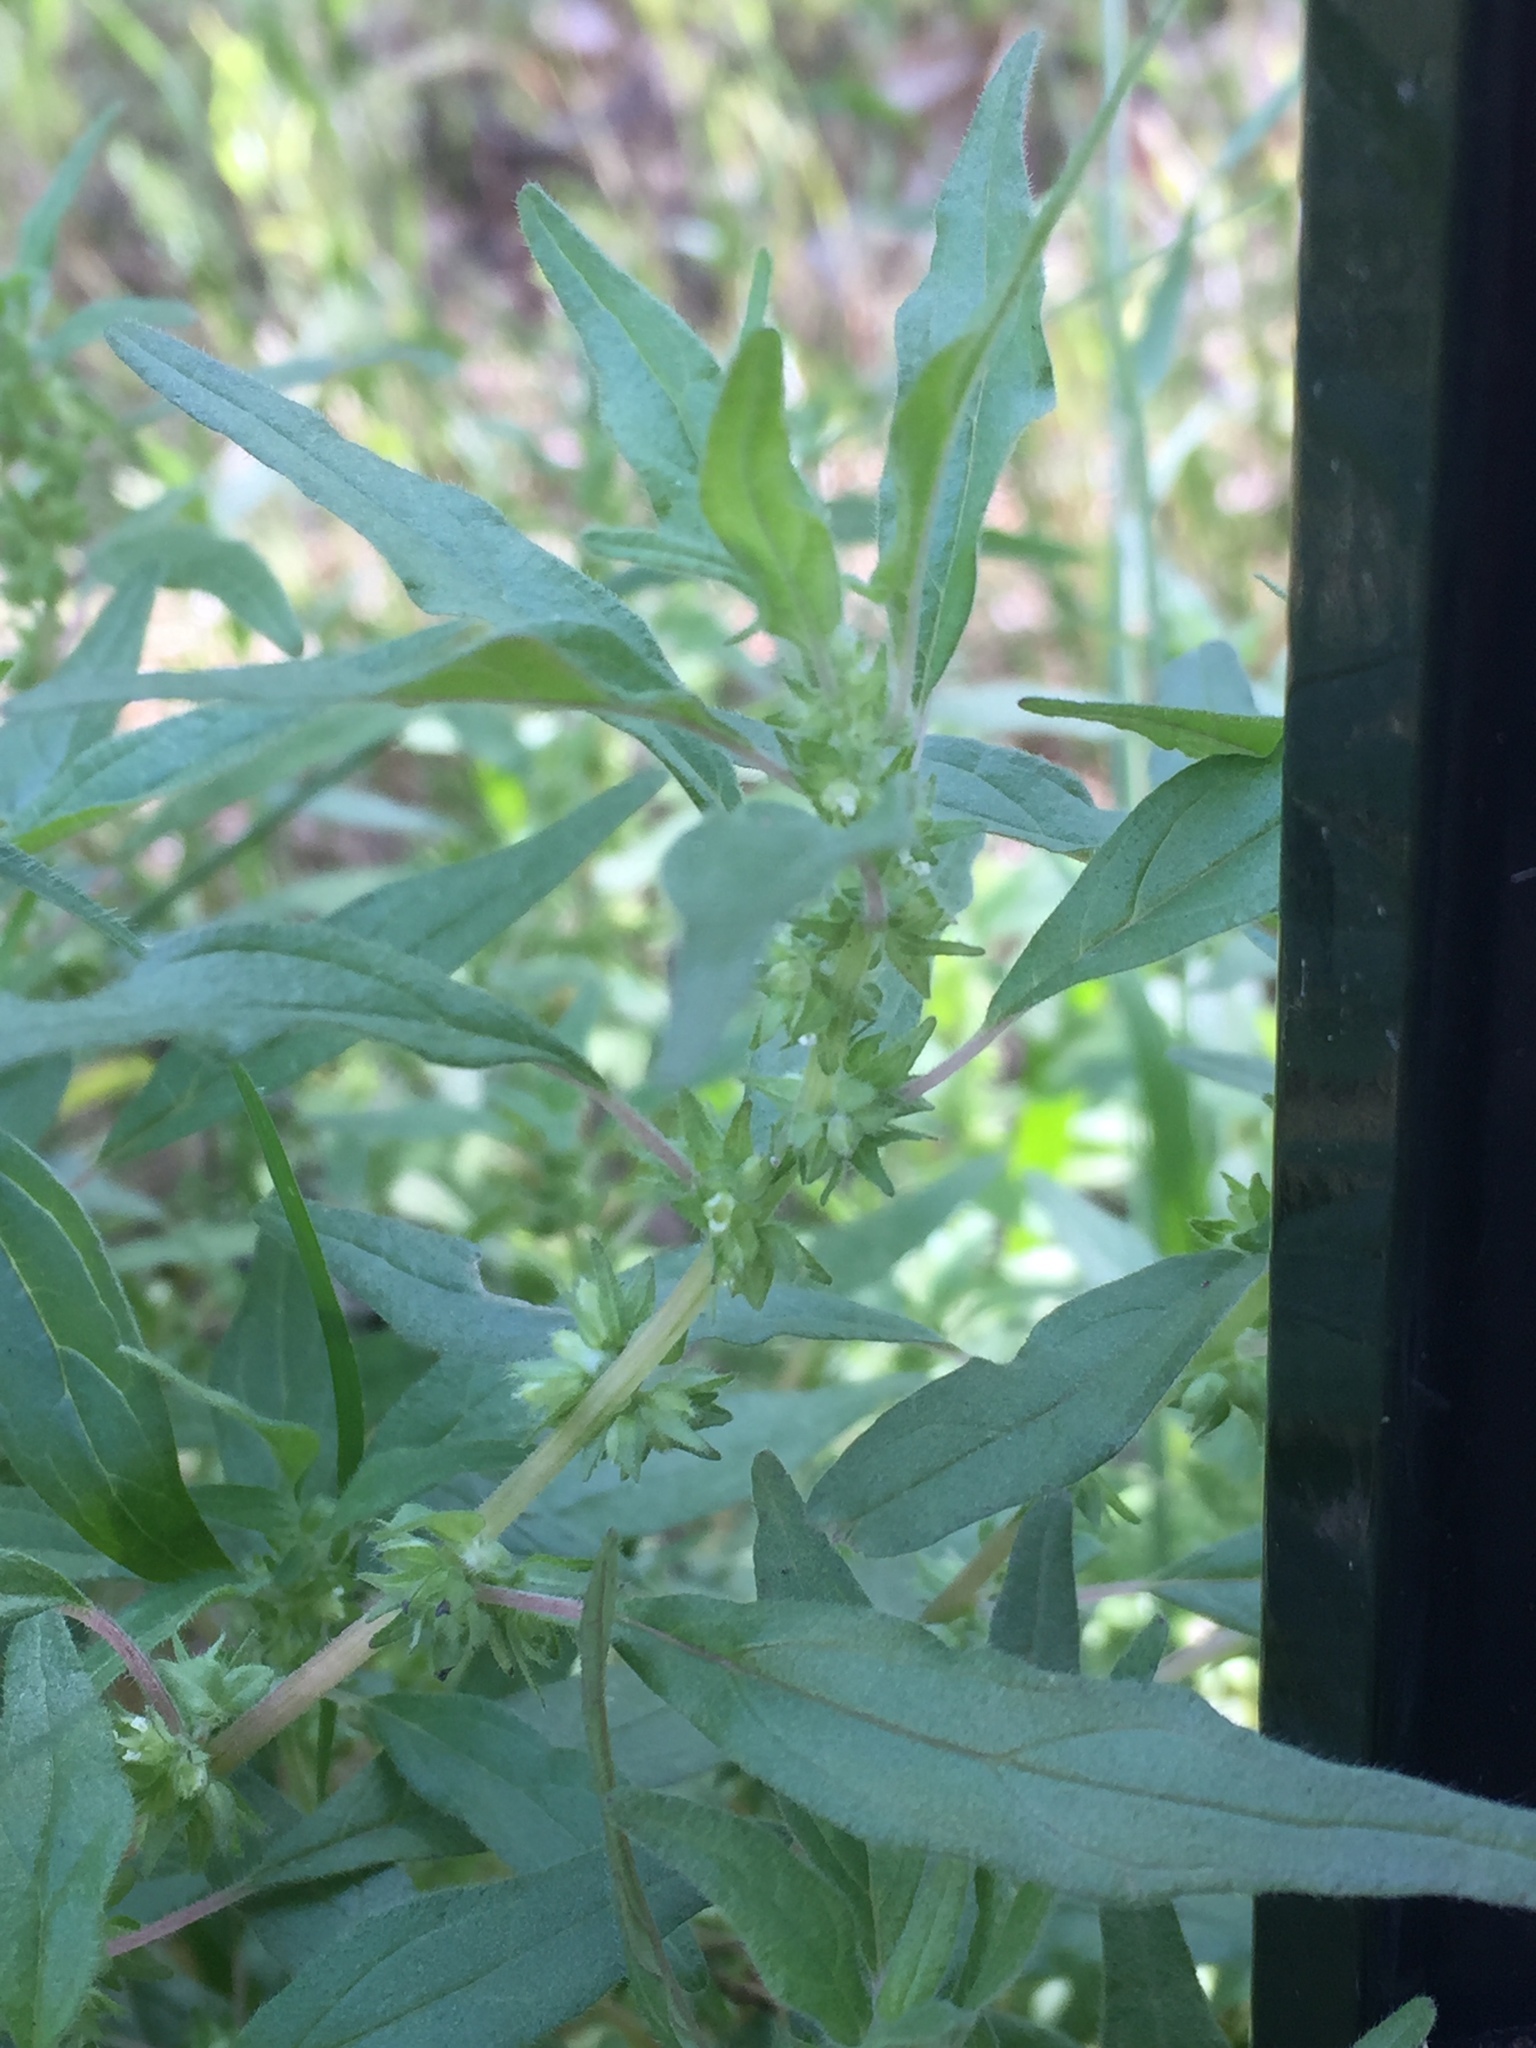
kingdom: Plantae
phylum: Tracheophyta
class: Magnoliopsida
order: Rosales
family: Urticaceae
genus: Parietaria
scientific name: Parietaria pensylvanica
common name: Pennsylvania pellitory
